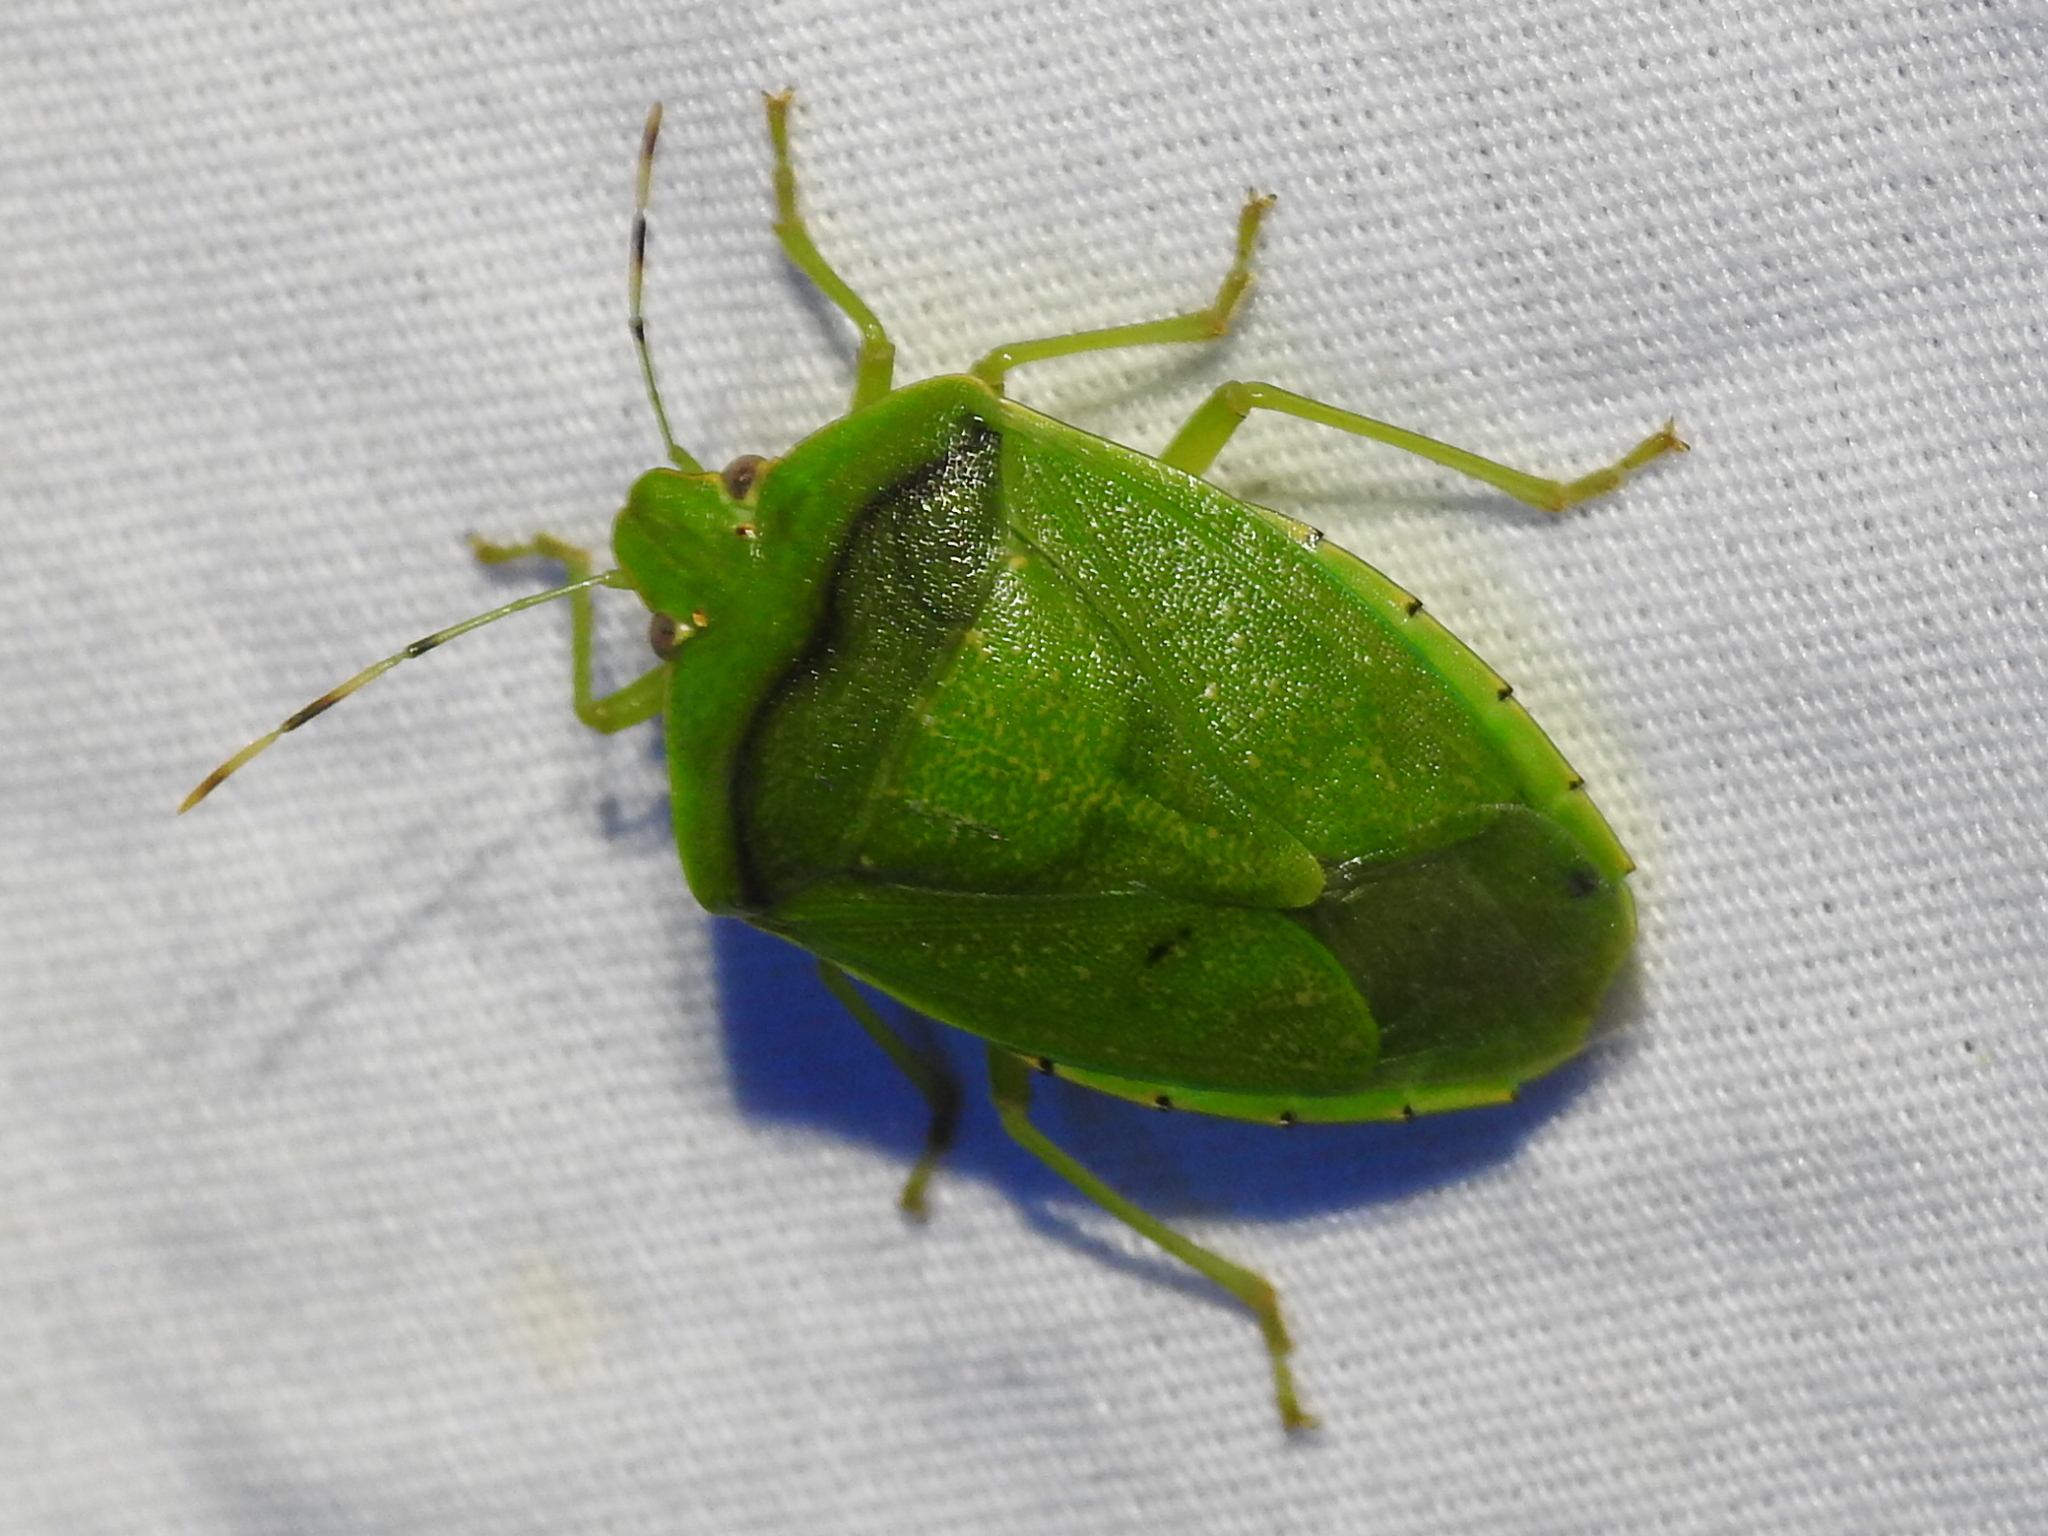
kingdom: Animalia
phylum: Arthropoda
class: Insecta
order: Hemiptera
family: Pentatomidae
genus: Chinavia
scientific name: Chinavia hilaris
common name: Green stink bug
